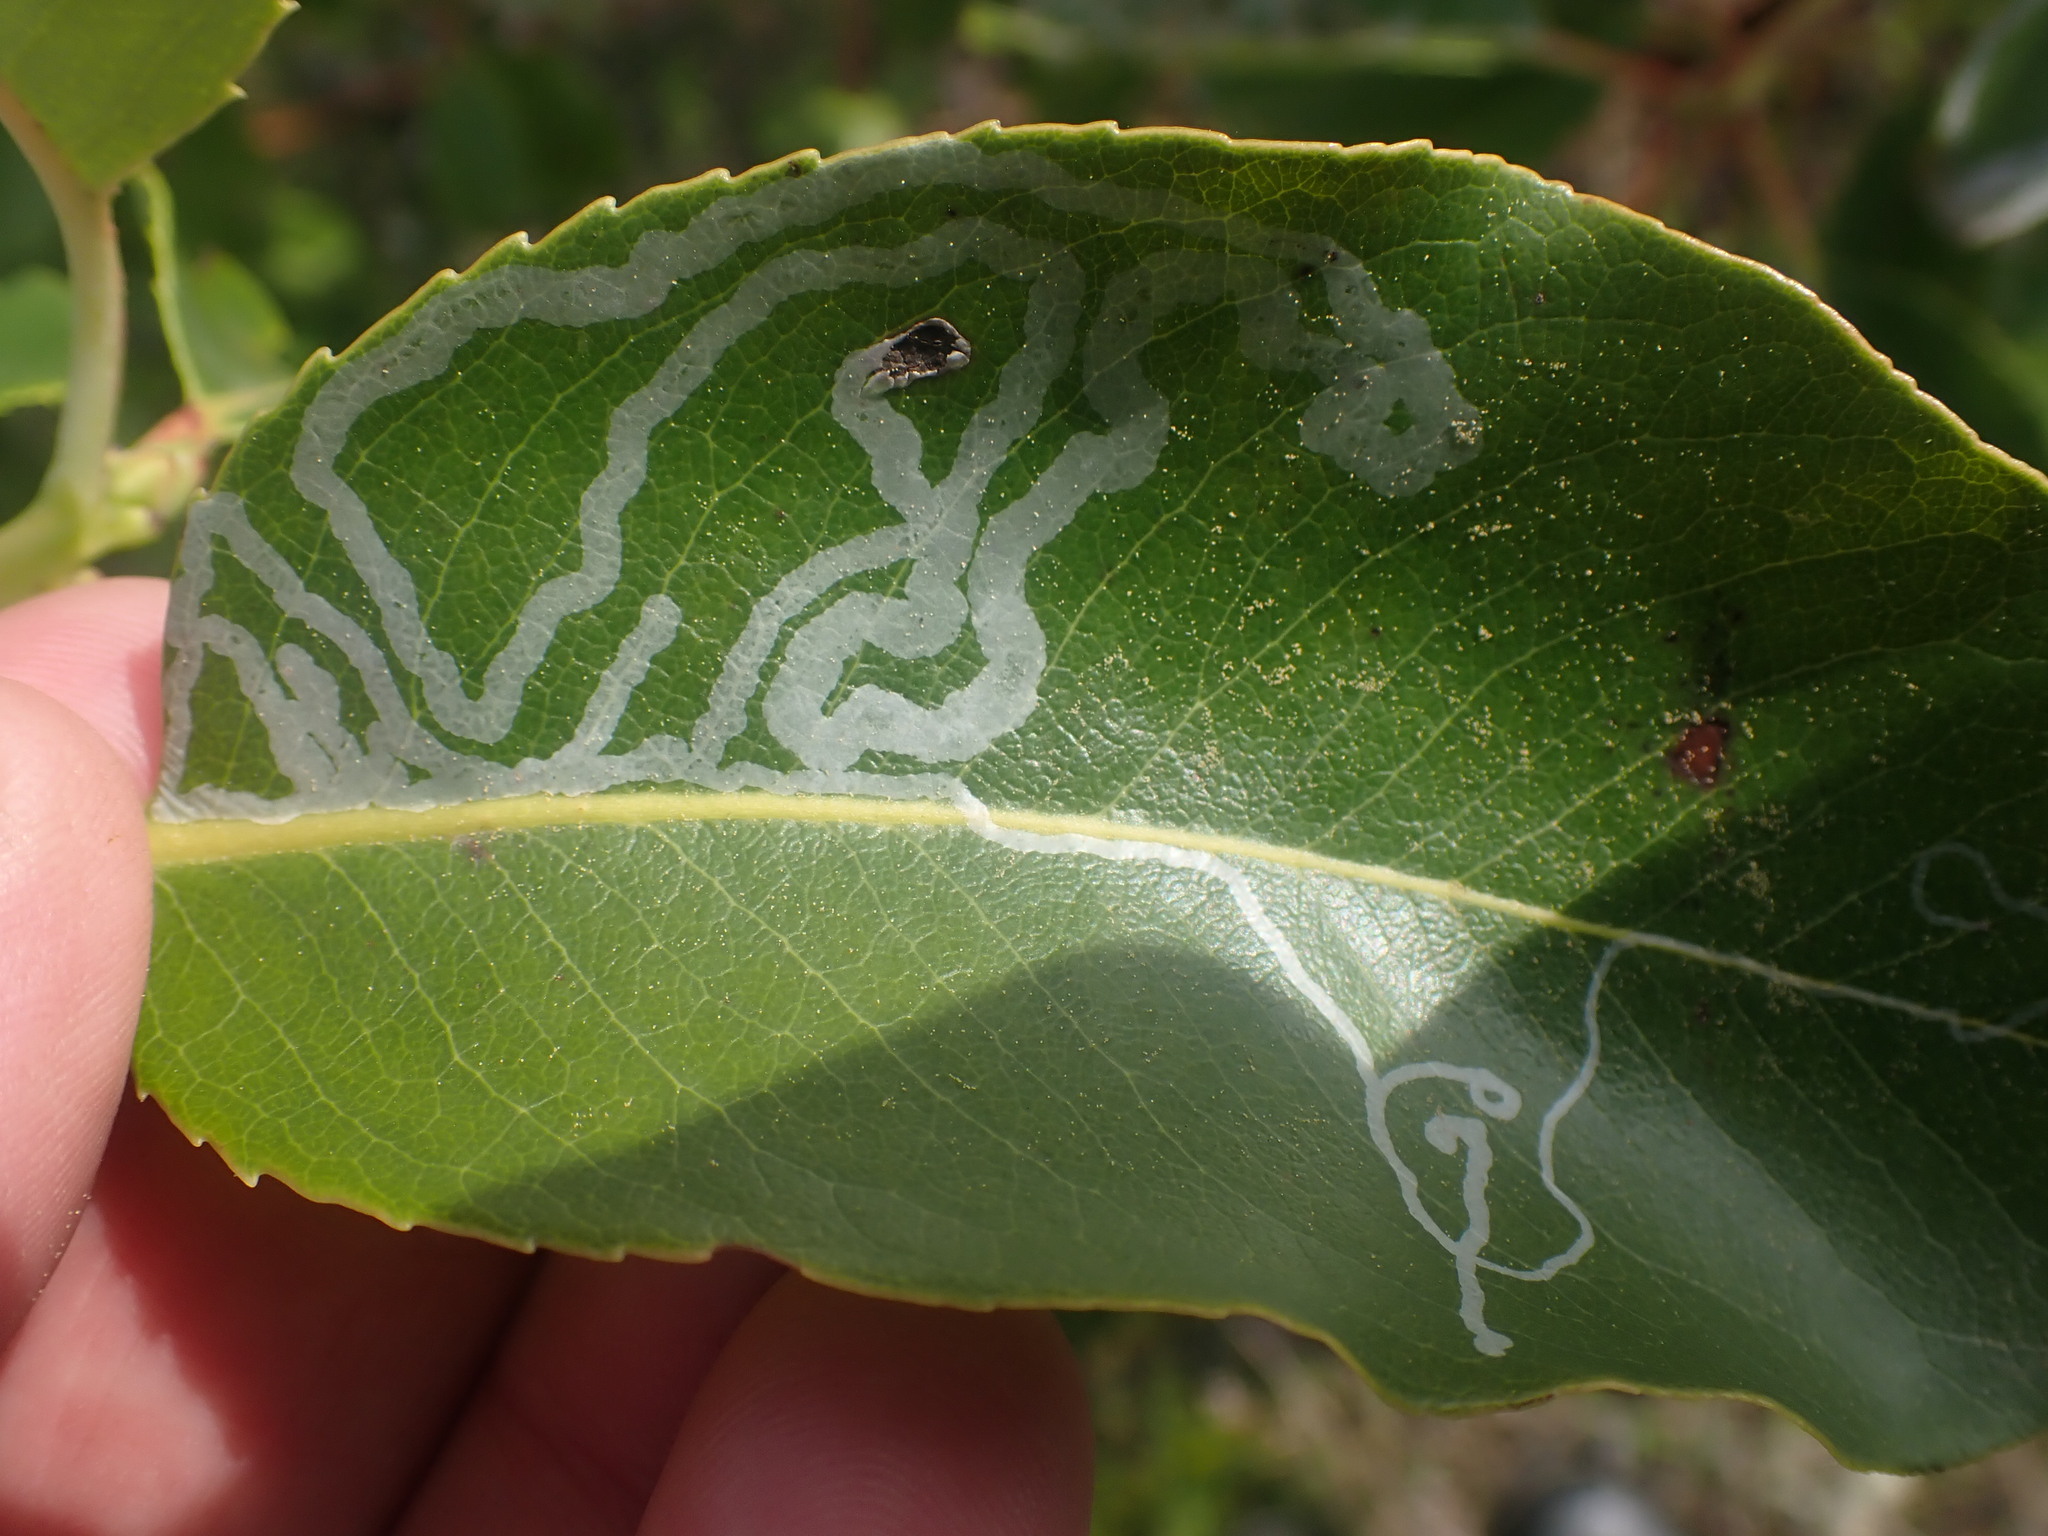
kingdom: Animalia
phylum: Arthropoda
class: Insecta
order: Lepidoptera
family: Gracillariidae
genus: Marmara
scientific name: Marmara arbutiella
